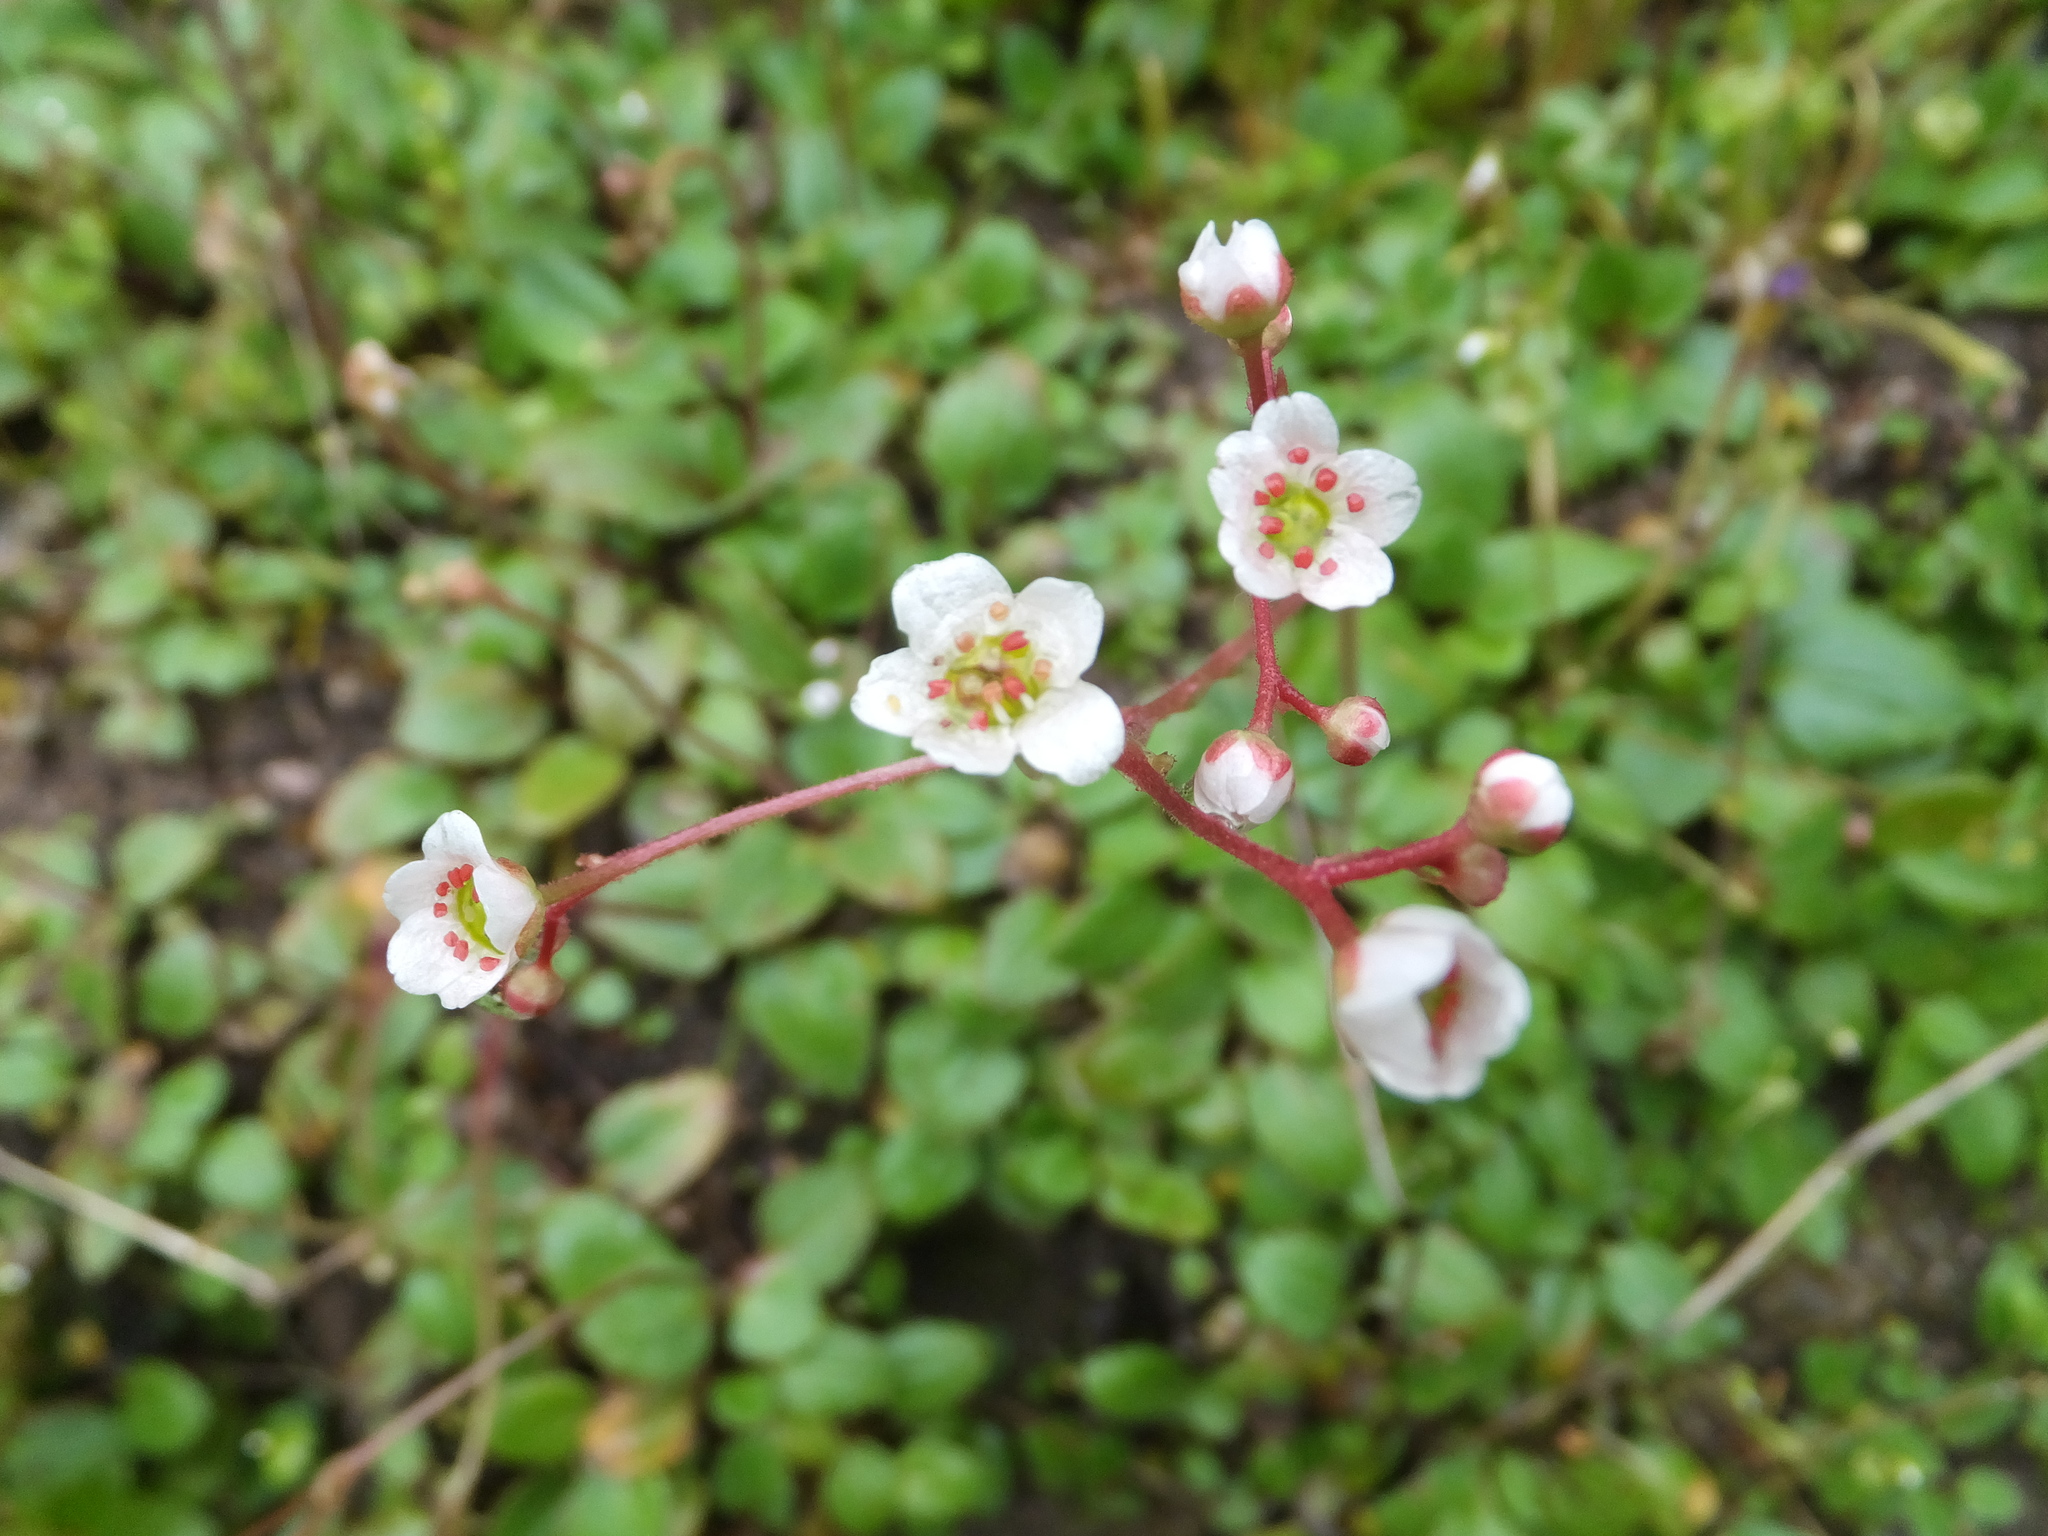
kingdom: Plantae
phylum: Tracheophyta
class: Magnoliopsida
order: Saxifragales
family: Saxifragaceae
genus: Micranthes
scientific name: Micranthes californica
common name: California saxifrage
